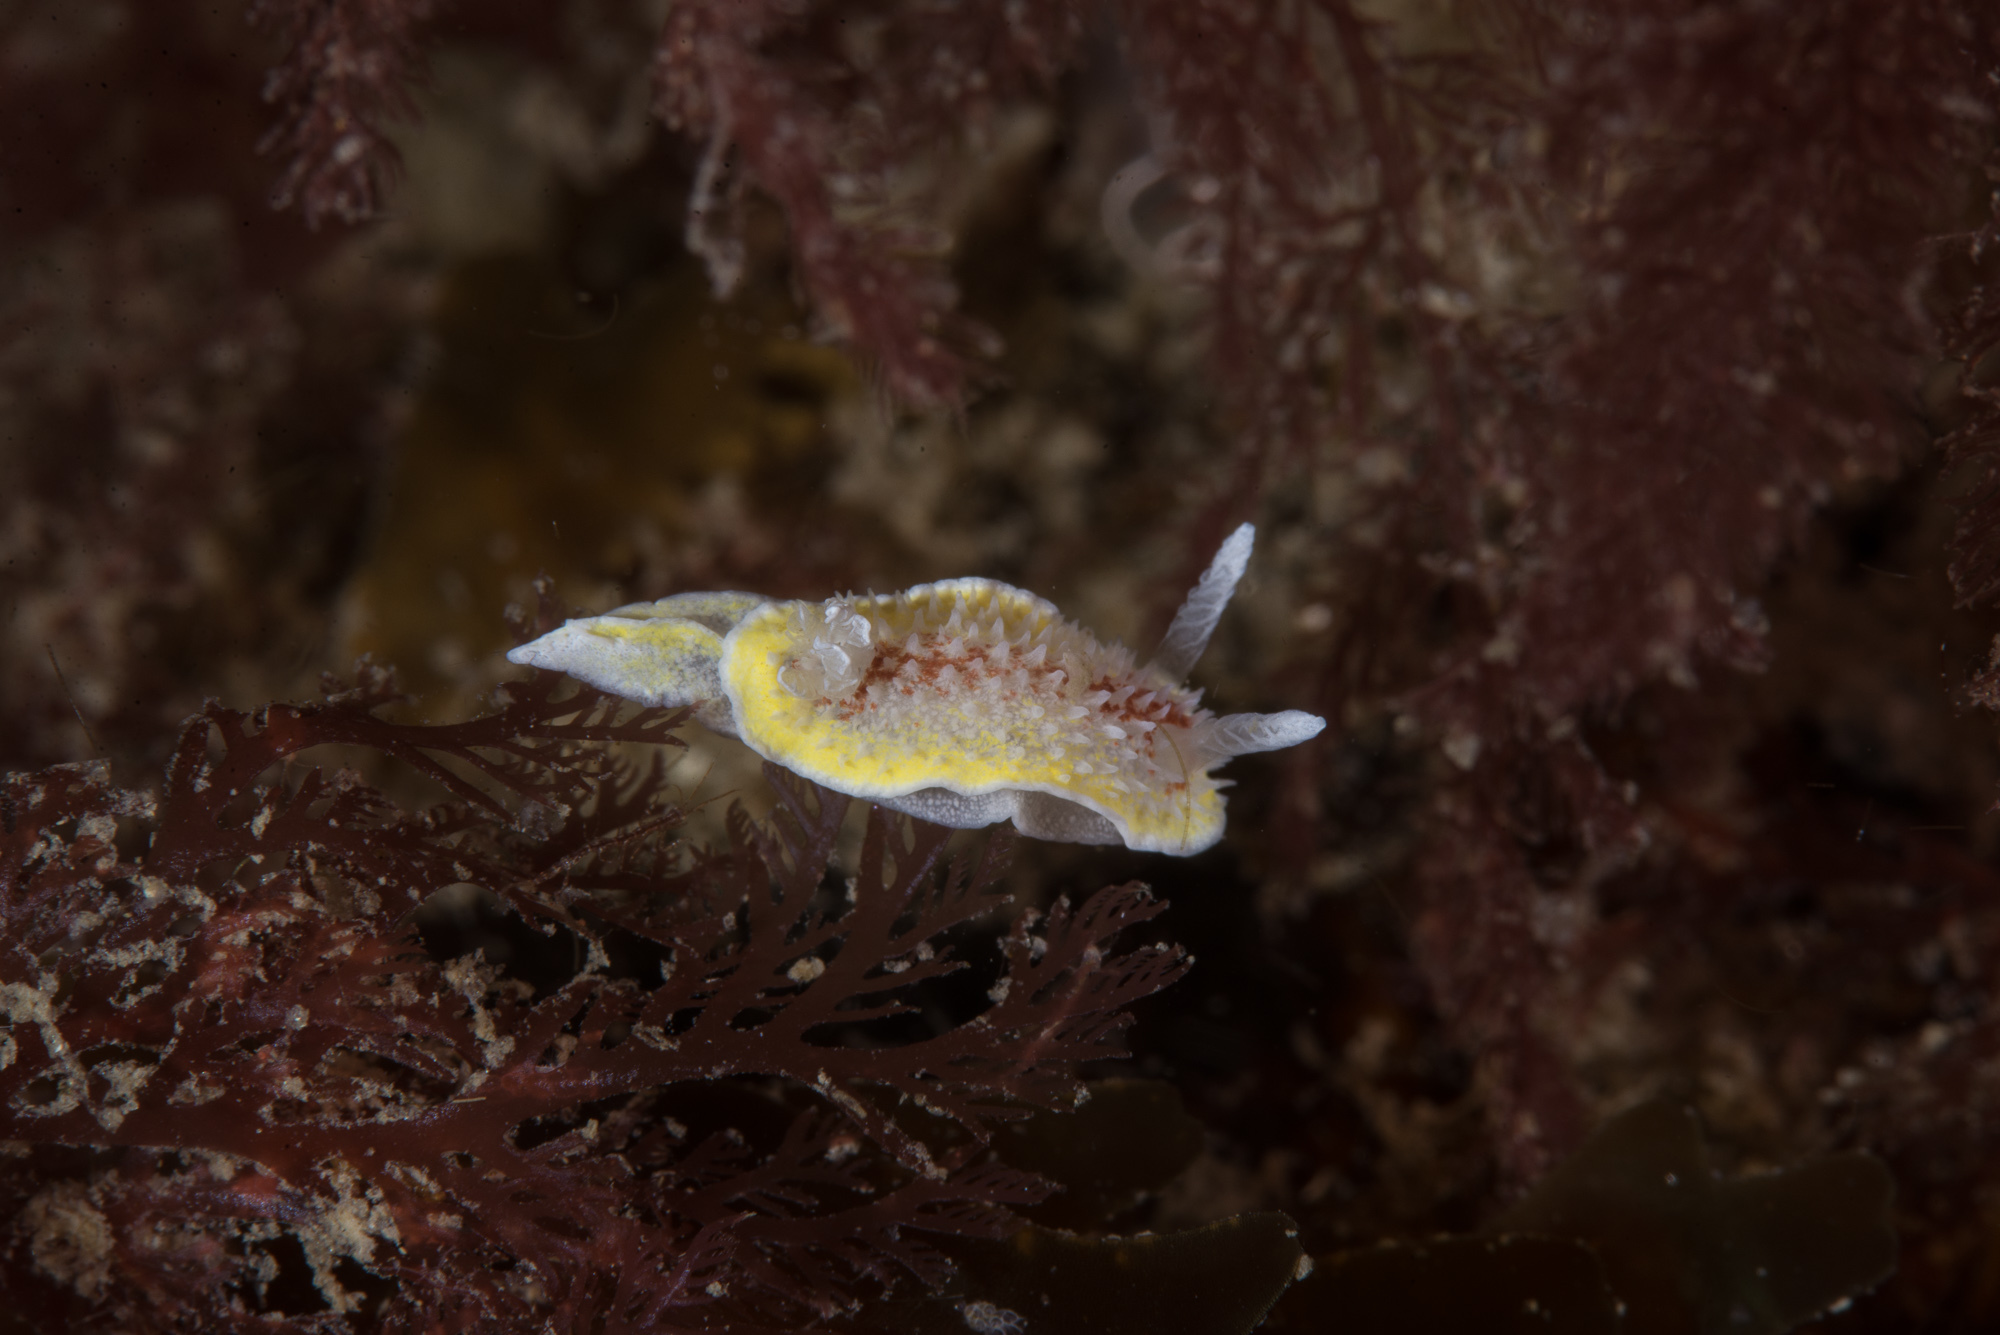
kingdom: Animalia
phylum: Mollusca
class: Gastropoda
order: Nudibranchia
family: Calycidorididae
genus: Diaphorodoris
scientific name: Diaphorodoris luteocincta
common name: Fried egg nudibranch
